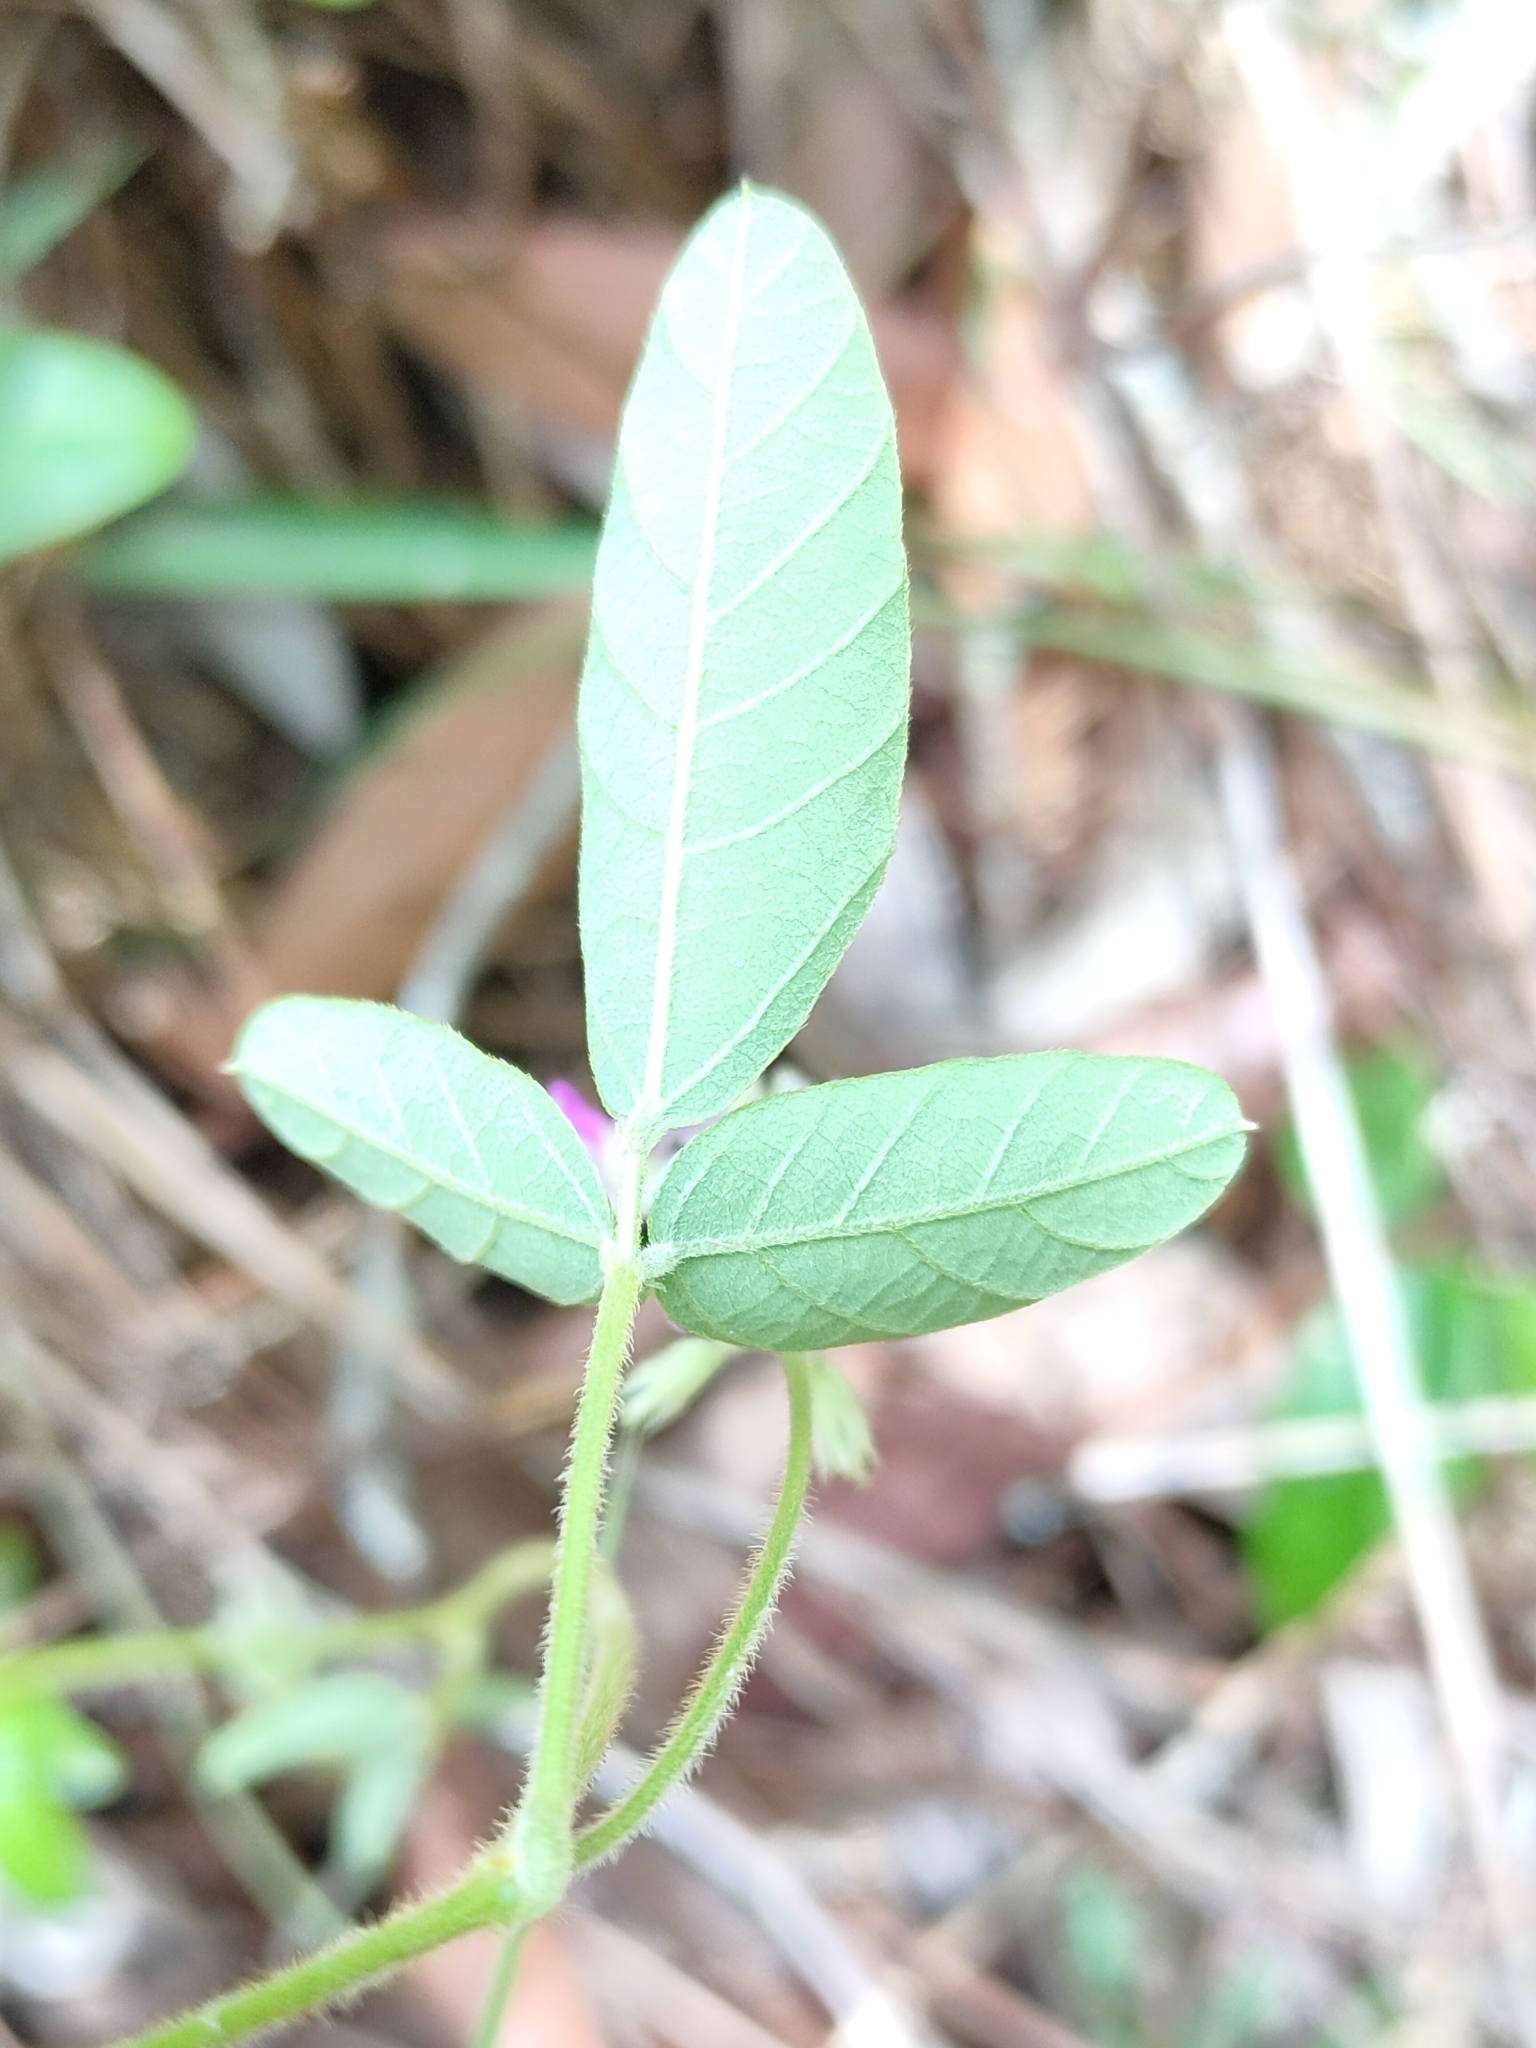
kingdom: Plantae
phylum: Tracheophyta
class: Magnoliopsida
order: Fabales
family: Fabaceae
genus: Glycine
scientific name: Glycine tomentella
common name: Hairy glycine
